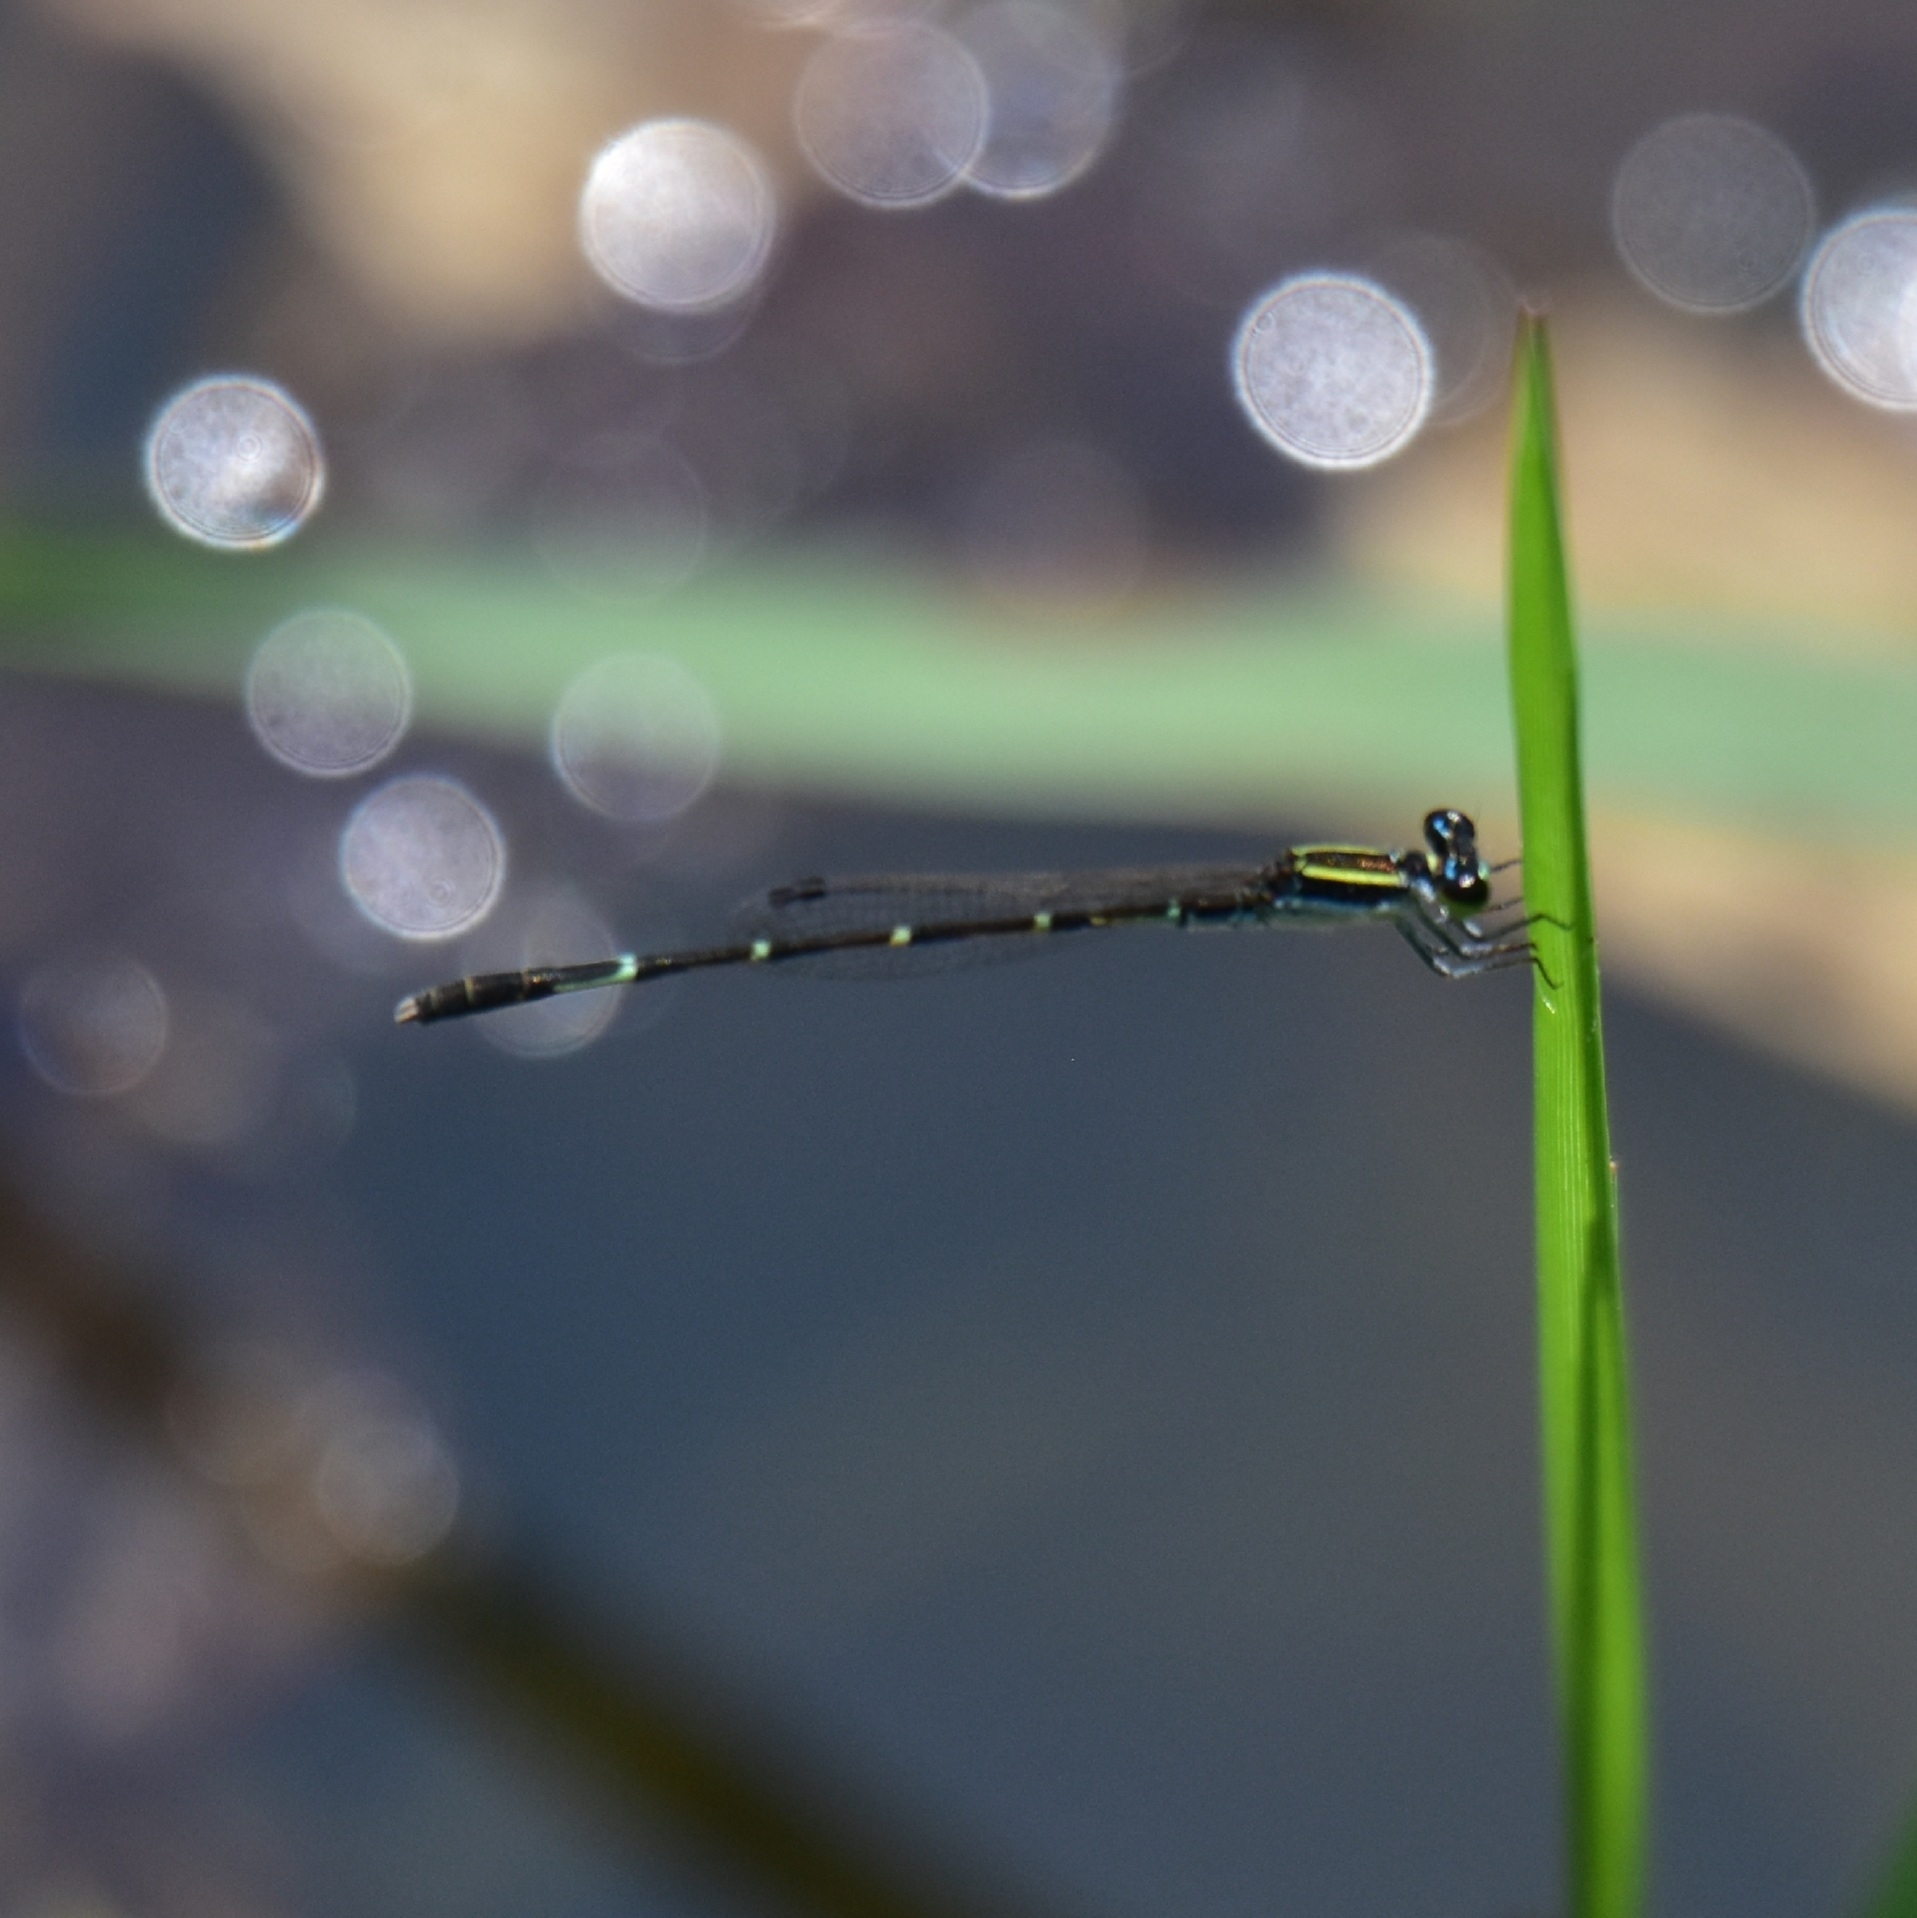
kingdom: Animalia
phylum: Arthropoda
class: Insecta
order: Odonata
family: Coenagrionidae
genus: Agriocnemis
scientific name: Agriocnemis splendidissima
